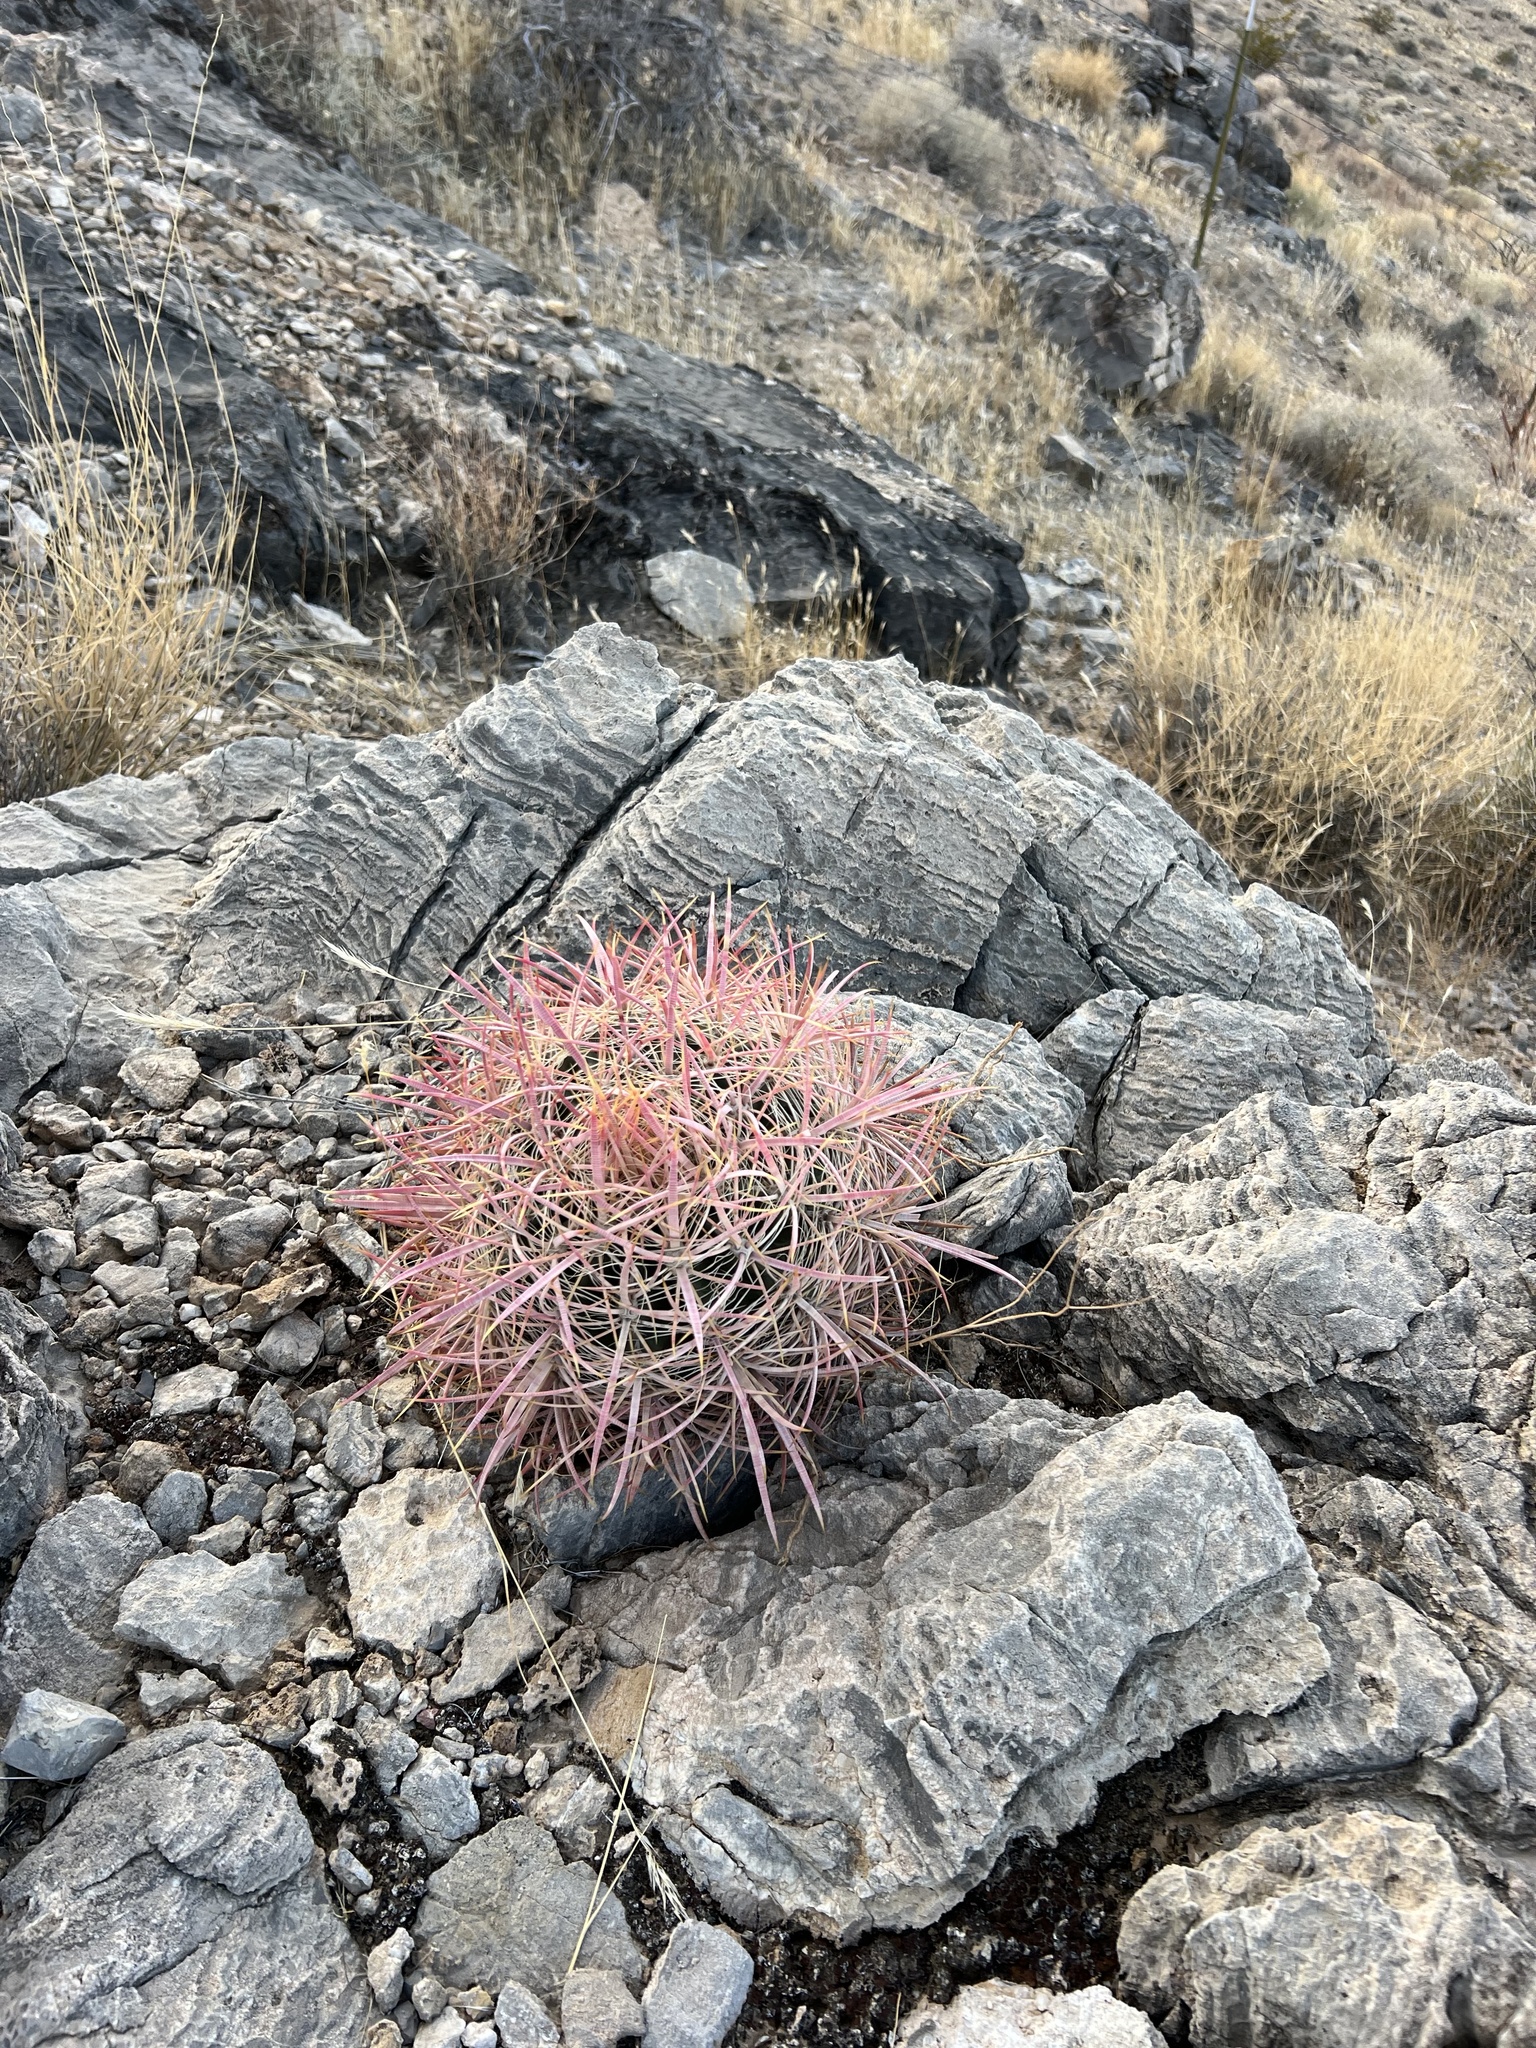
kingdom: Plantae
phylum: Tracheophyta
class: Magnoliopsida
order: Caryophyllales
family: Cactaceae
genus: Ferocactus
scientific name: Ferocactus cylindraceus
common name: California barrel cactus
